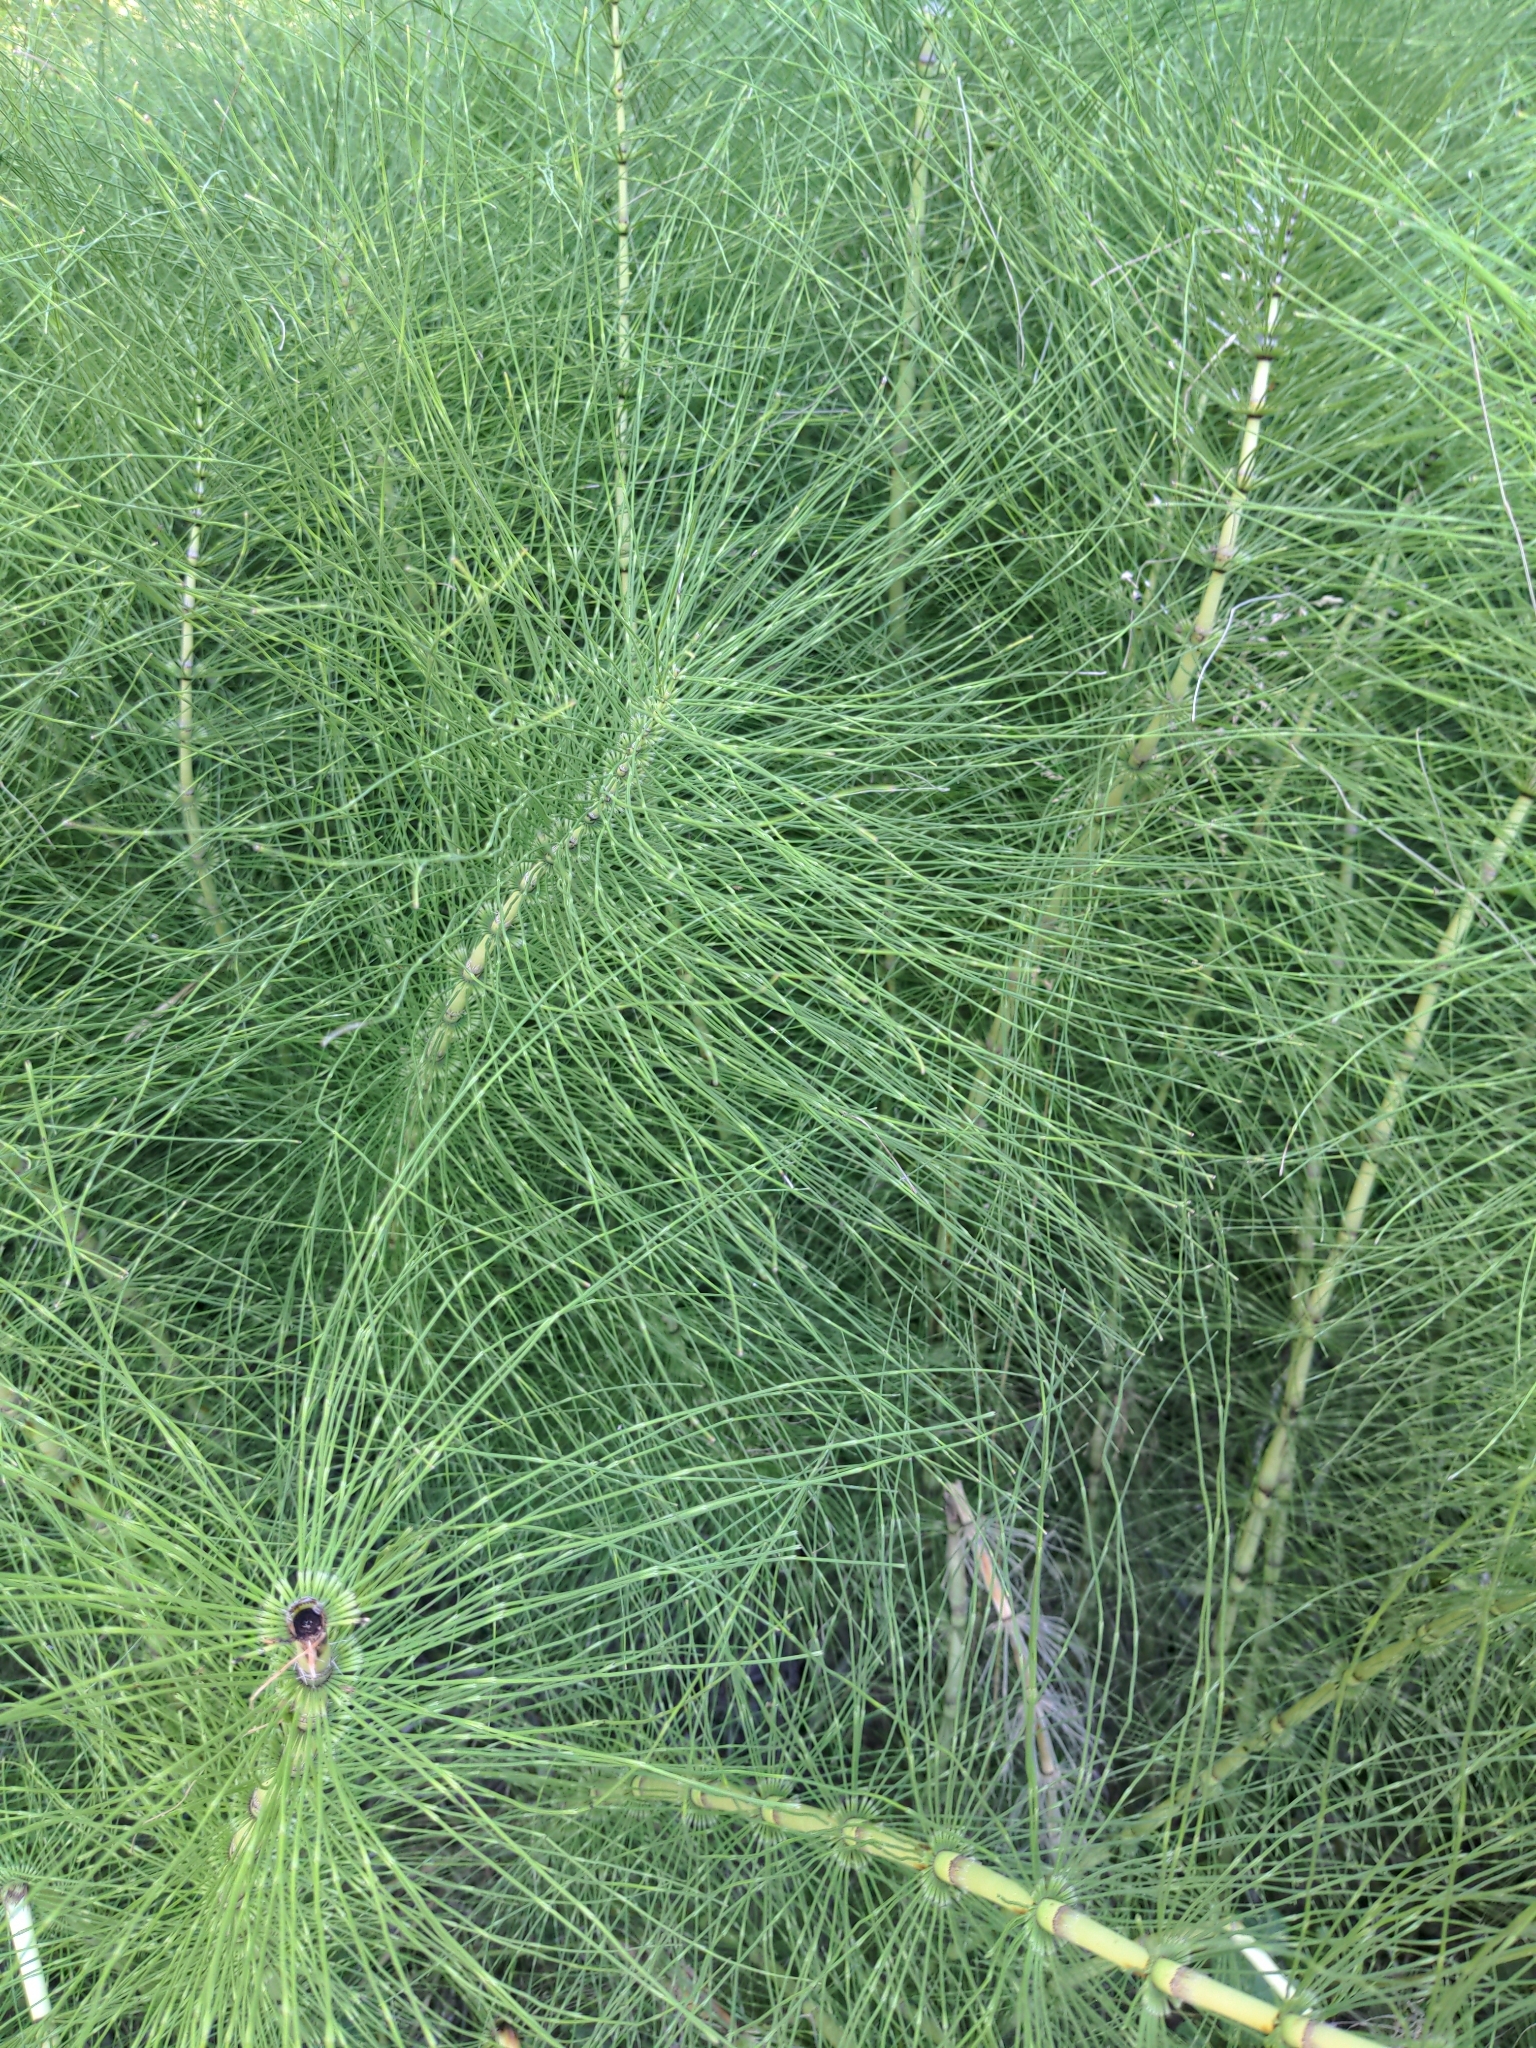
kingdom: Plantae
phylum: Tracheophyta
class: Polypodiopsida
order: Equisetales
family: Equisetaceae
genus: Equisetum
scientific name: Equisetum telmateia
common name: Great horsetail
